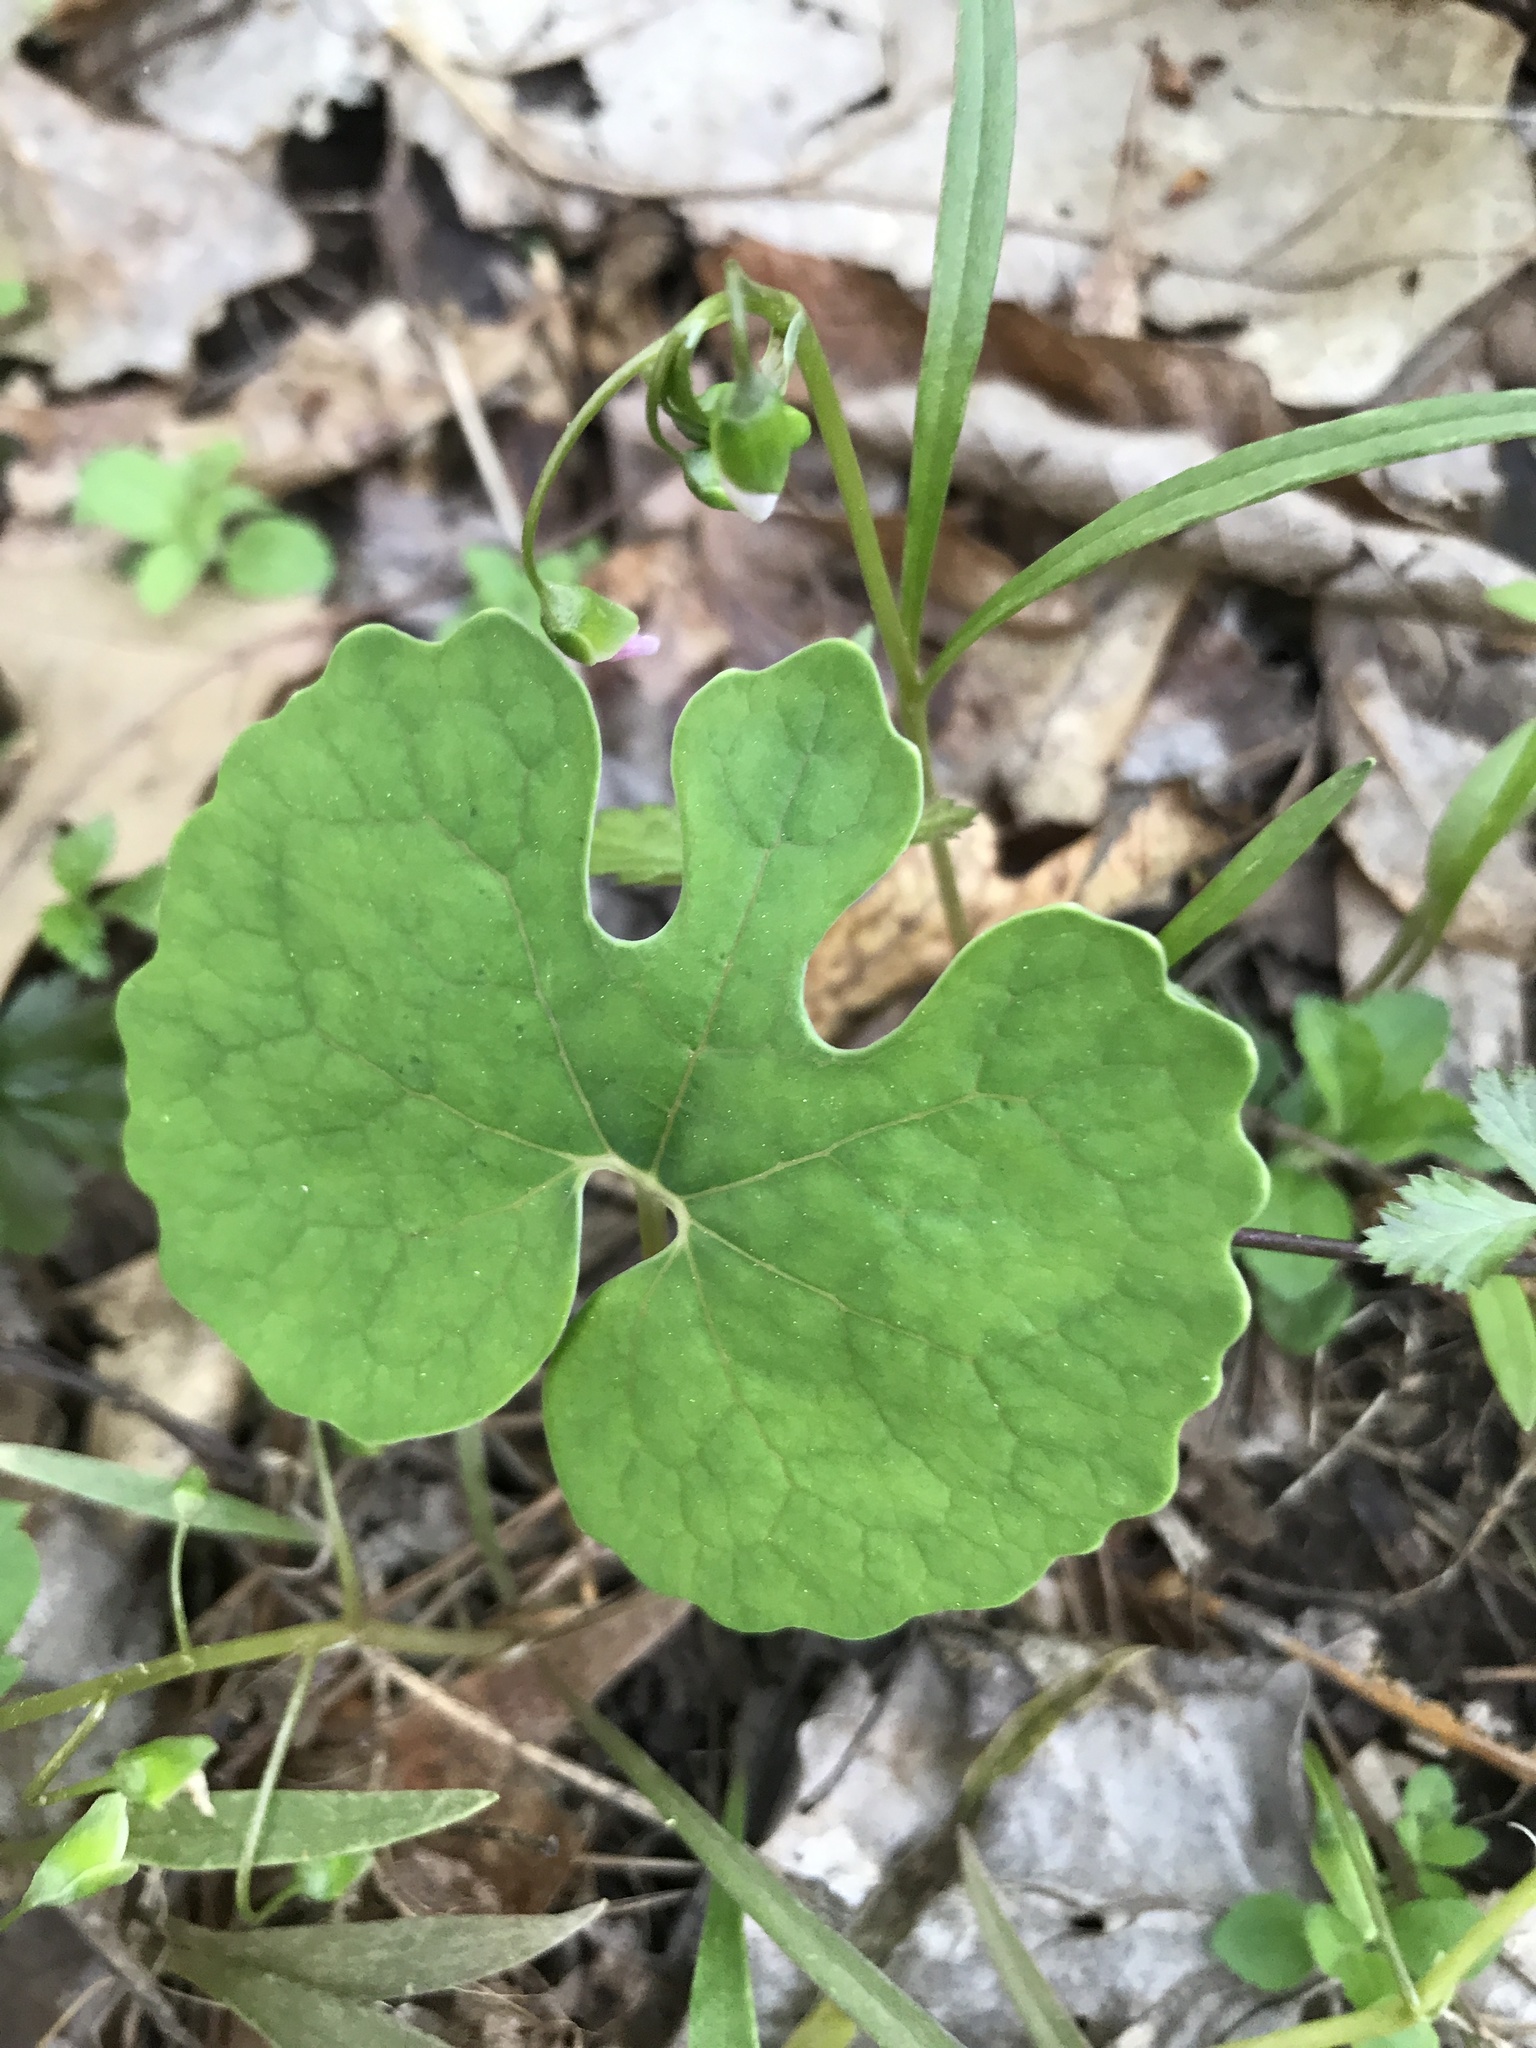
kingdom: Plantae
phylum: Tracheophyta
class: Magnoliopsida
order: Ranunculales
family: Papaveraceae
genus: Sanguinaria
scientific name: Sanguinaria canadensis
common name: Bloodroot
